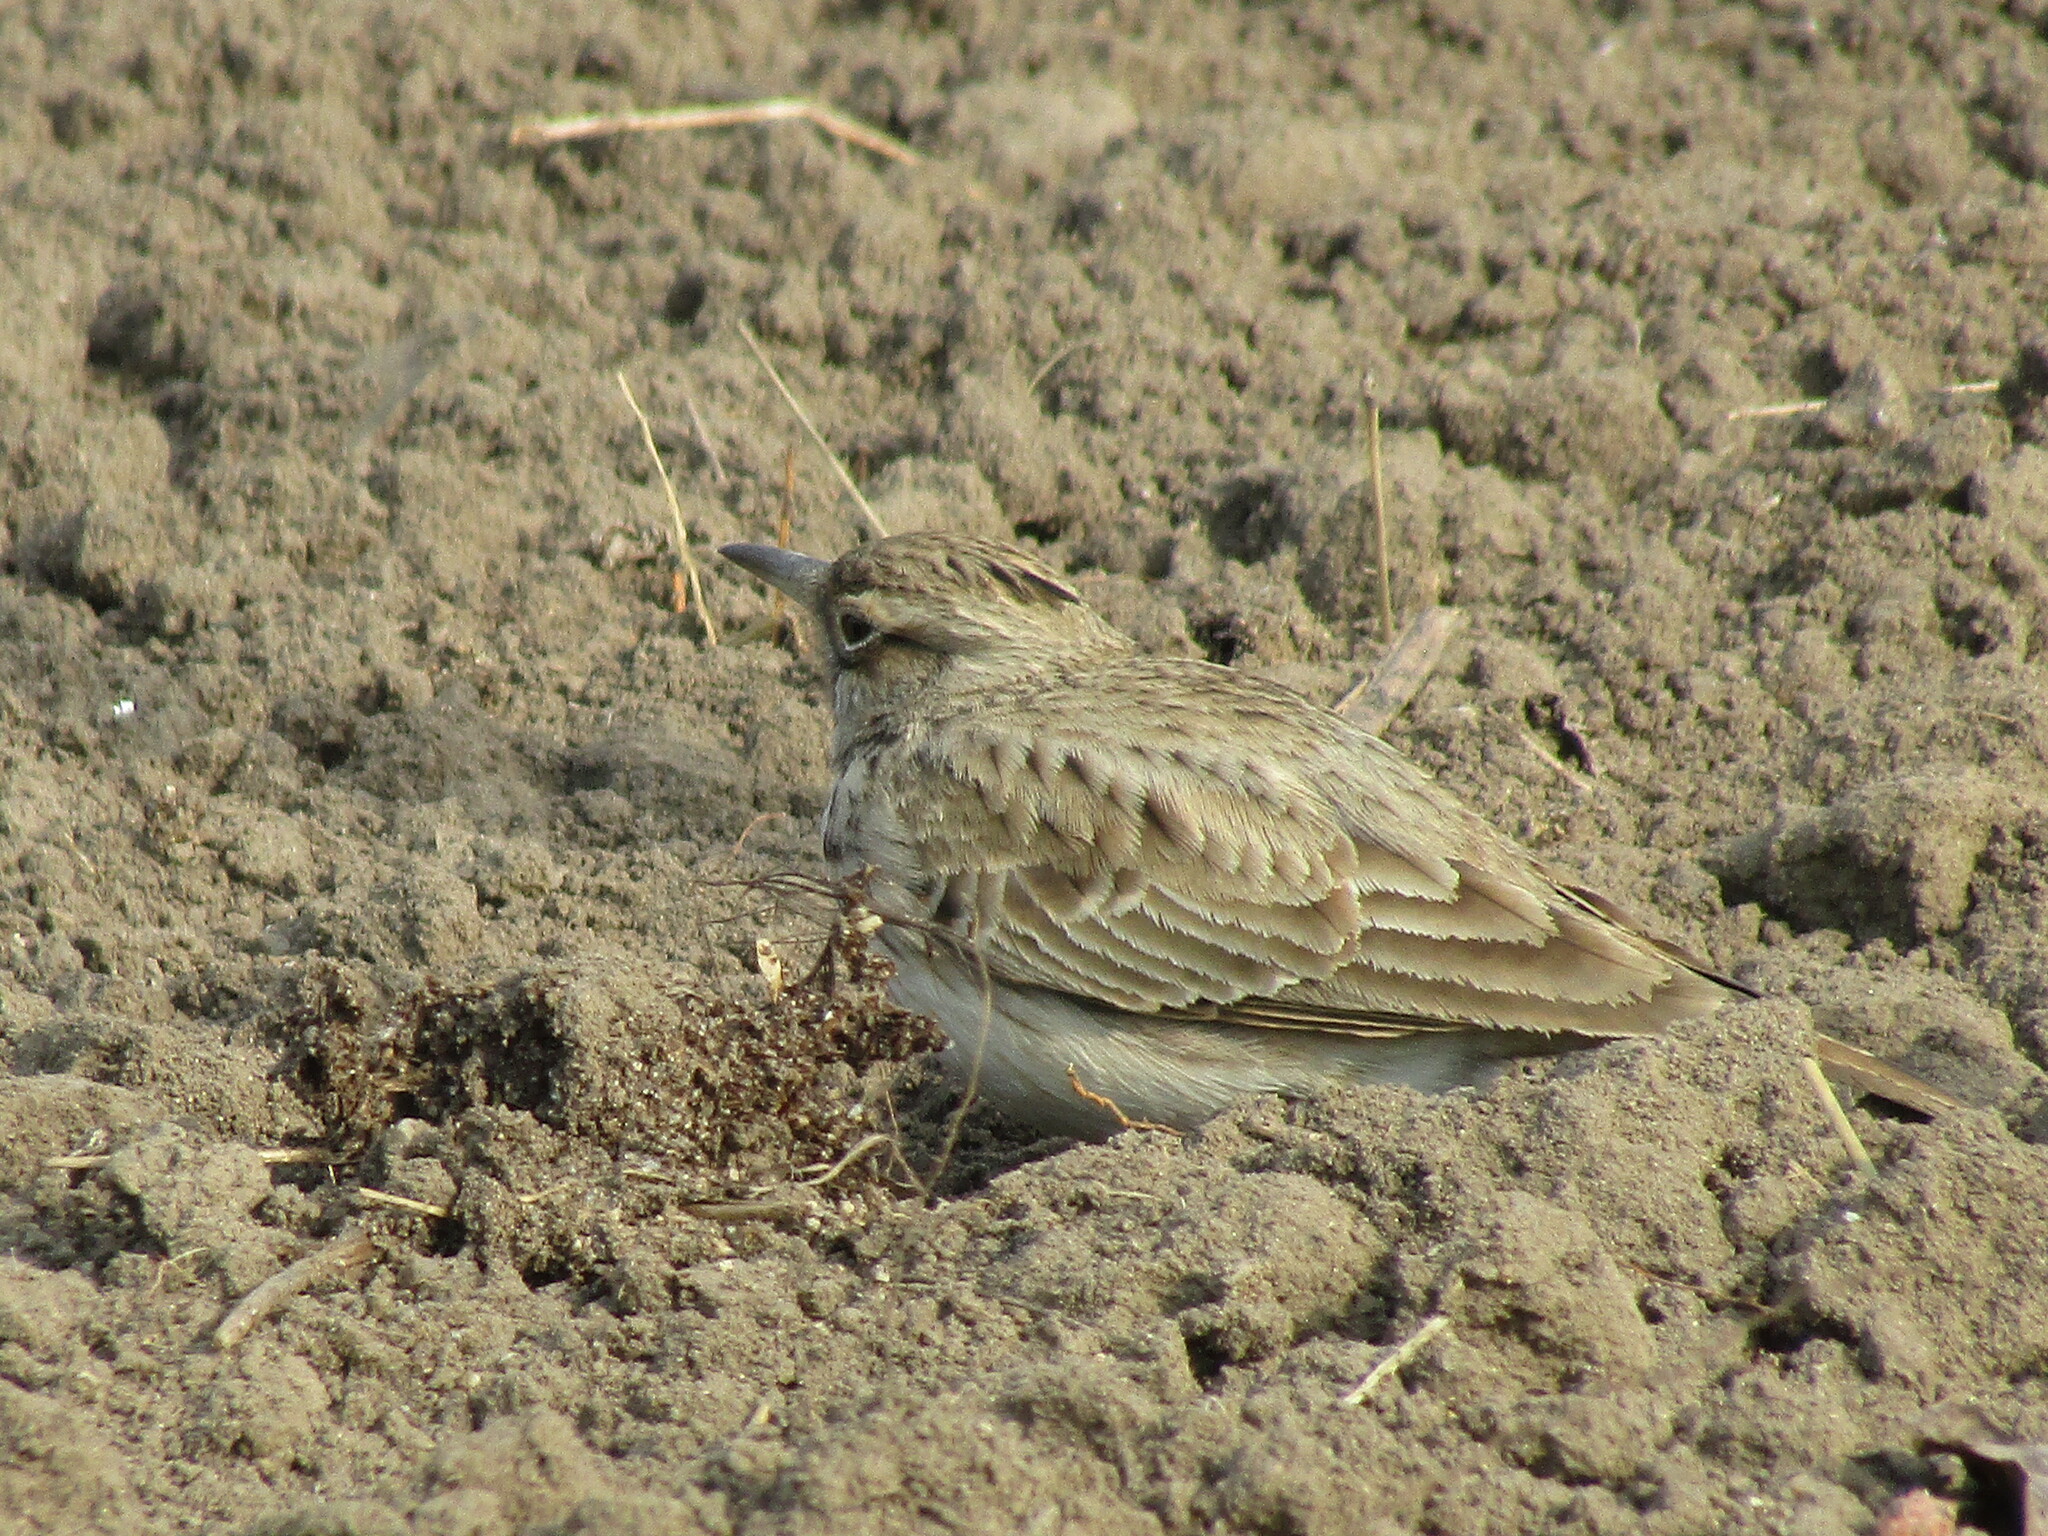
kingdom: Animalia
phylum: Chordata
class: Aves
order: Passeriformes
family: Alaudidae
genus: Galerida
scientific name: Galerida cristata
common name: Crested lark
